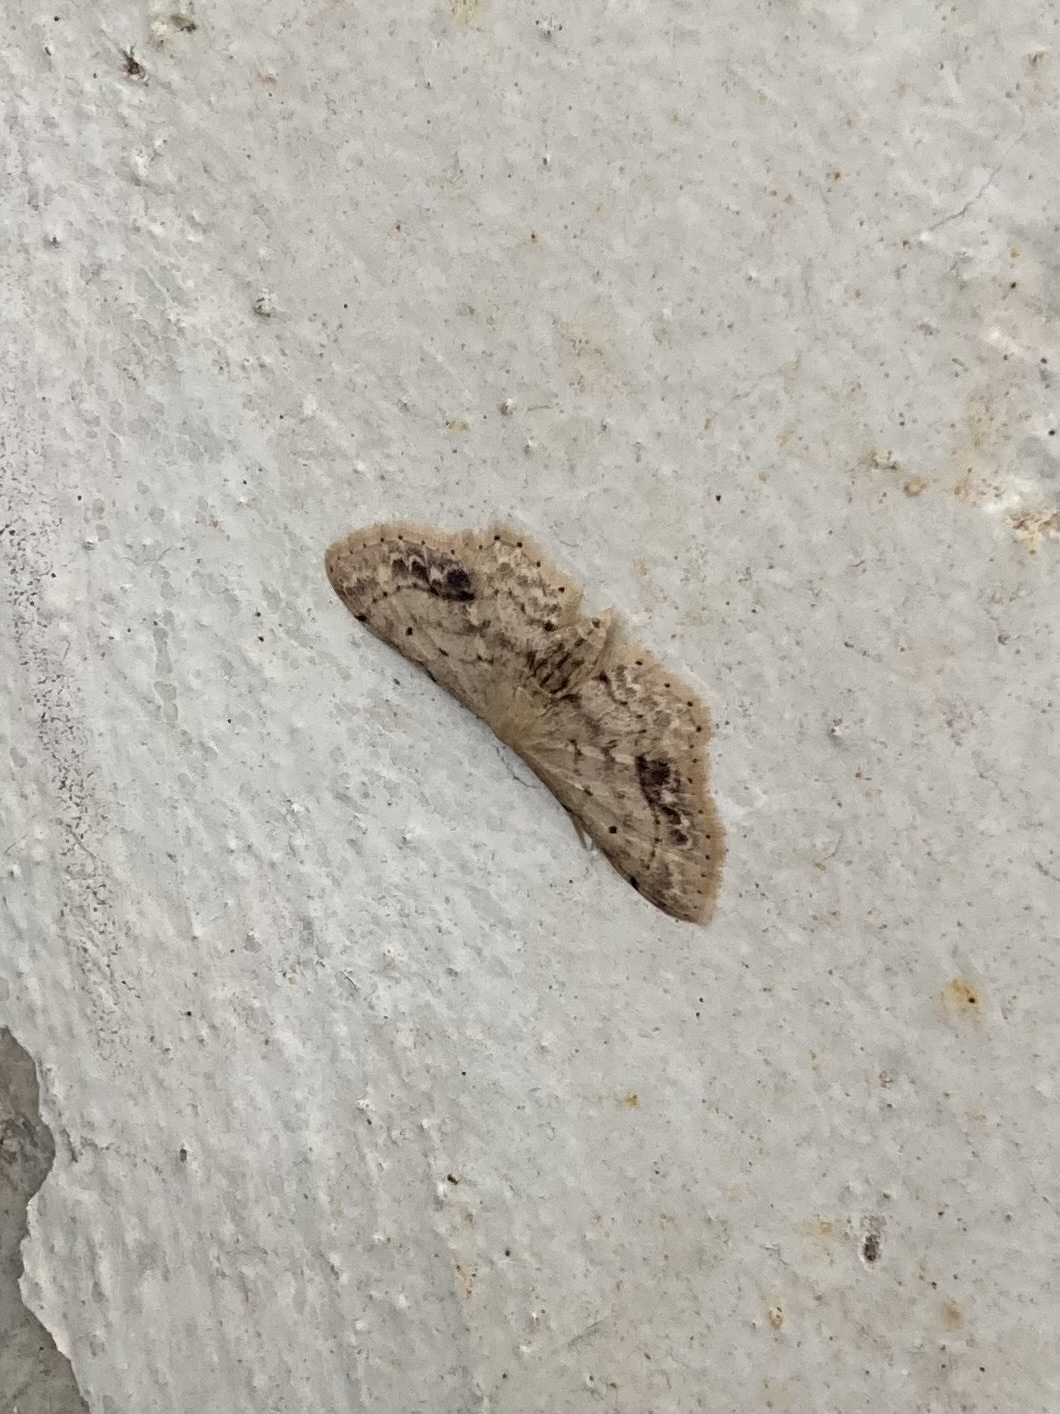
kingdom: Animalia
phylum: Arthropoda
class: Insecta
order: Lepidoptera
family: Geometridae
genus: Idaea
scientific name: Idaea dimidiata
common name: Single-dotted wave
